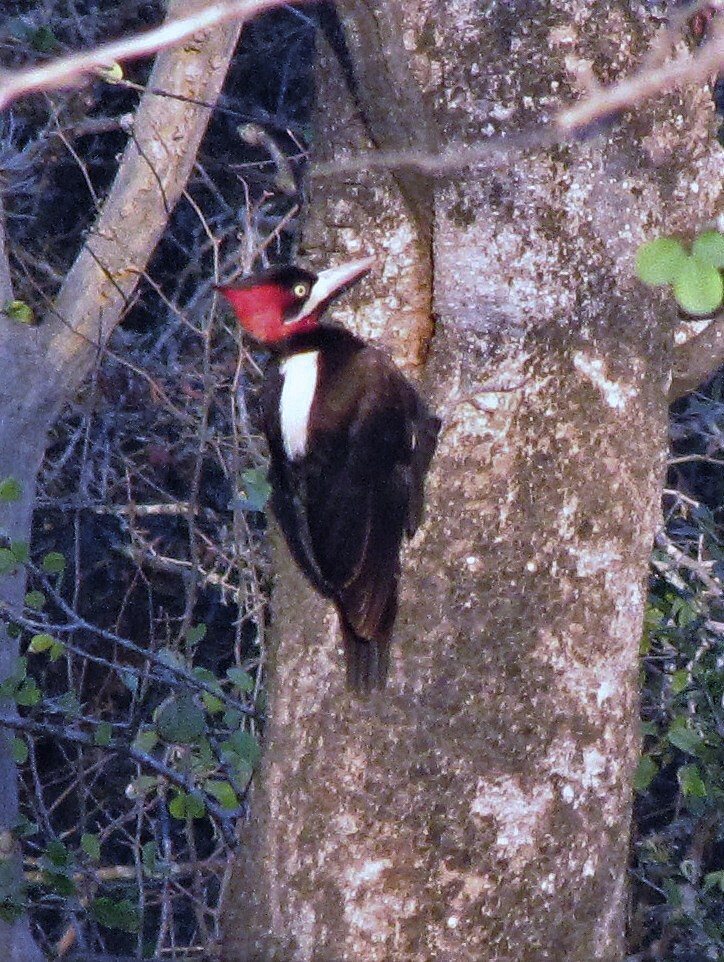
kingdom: Animalia
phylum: Chordata
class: Aves
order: Piciformes
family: Picidae
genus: Campephilus
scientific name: Campephilus leucopogon
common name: Cream-backed woodpecker
